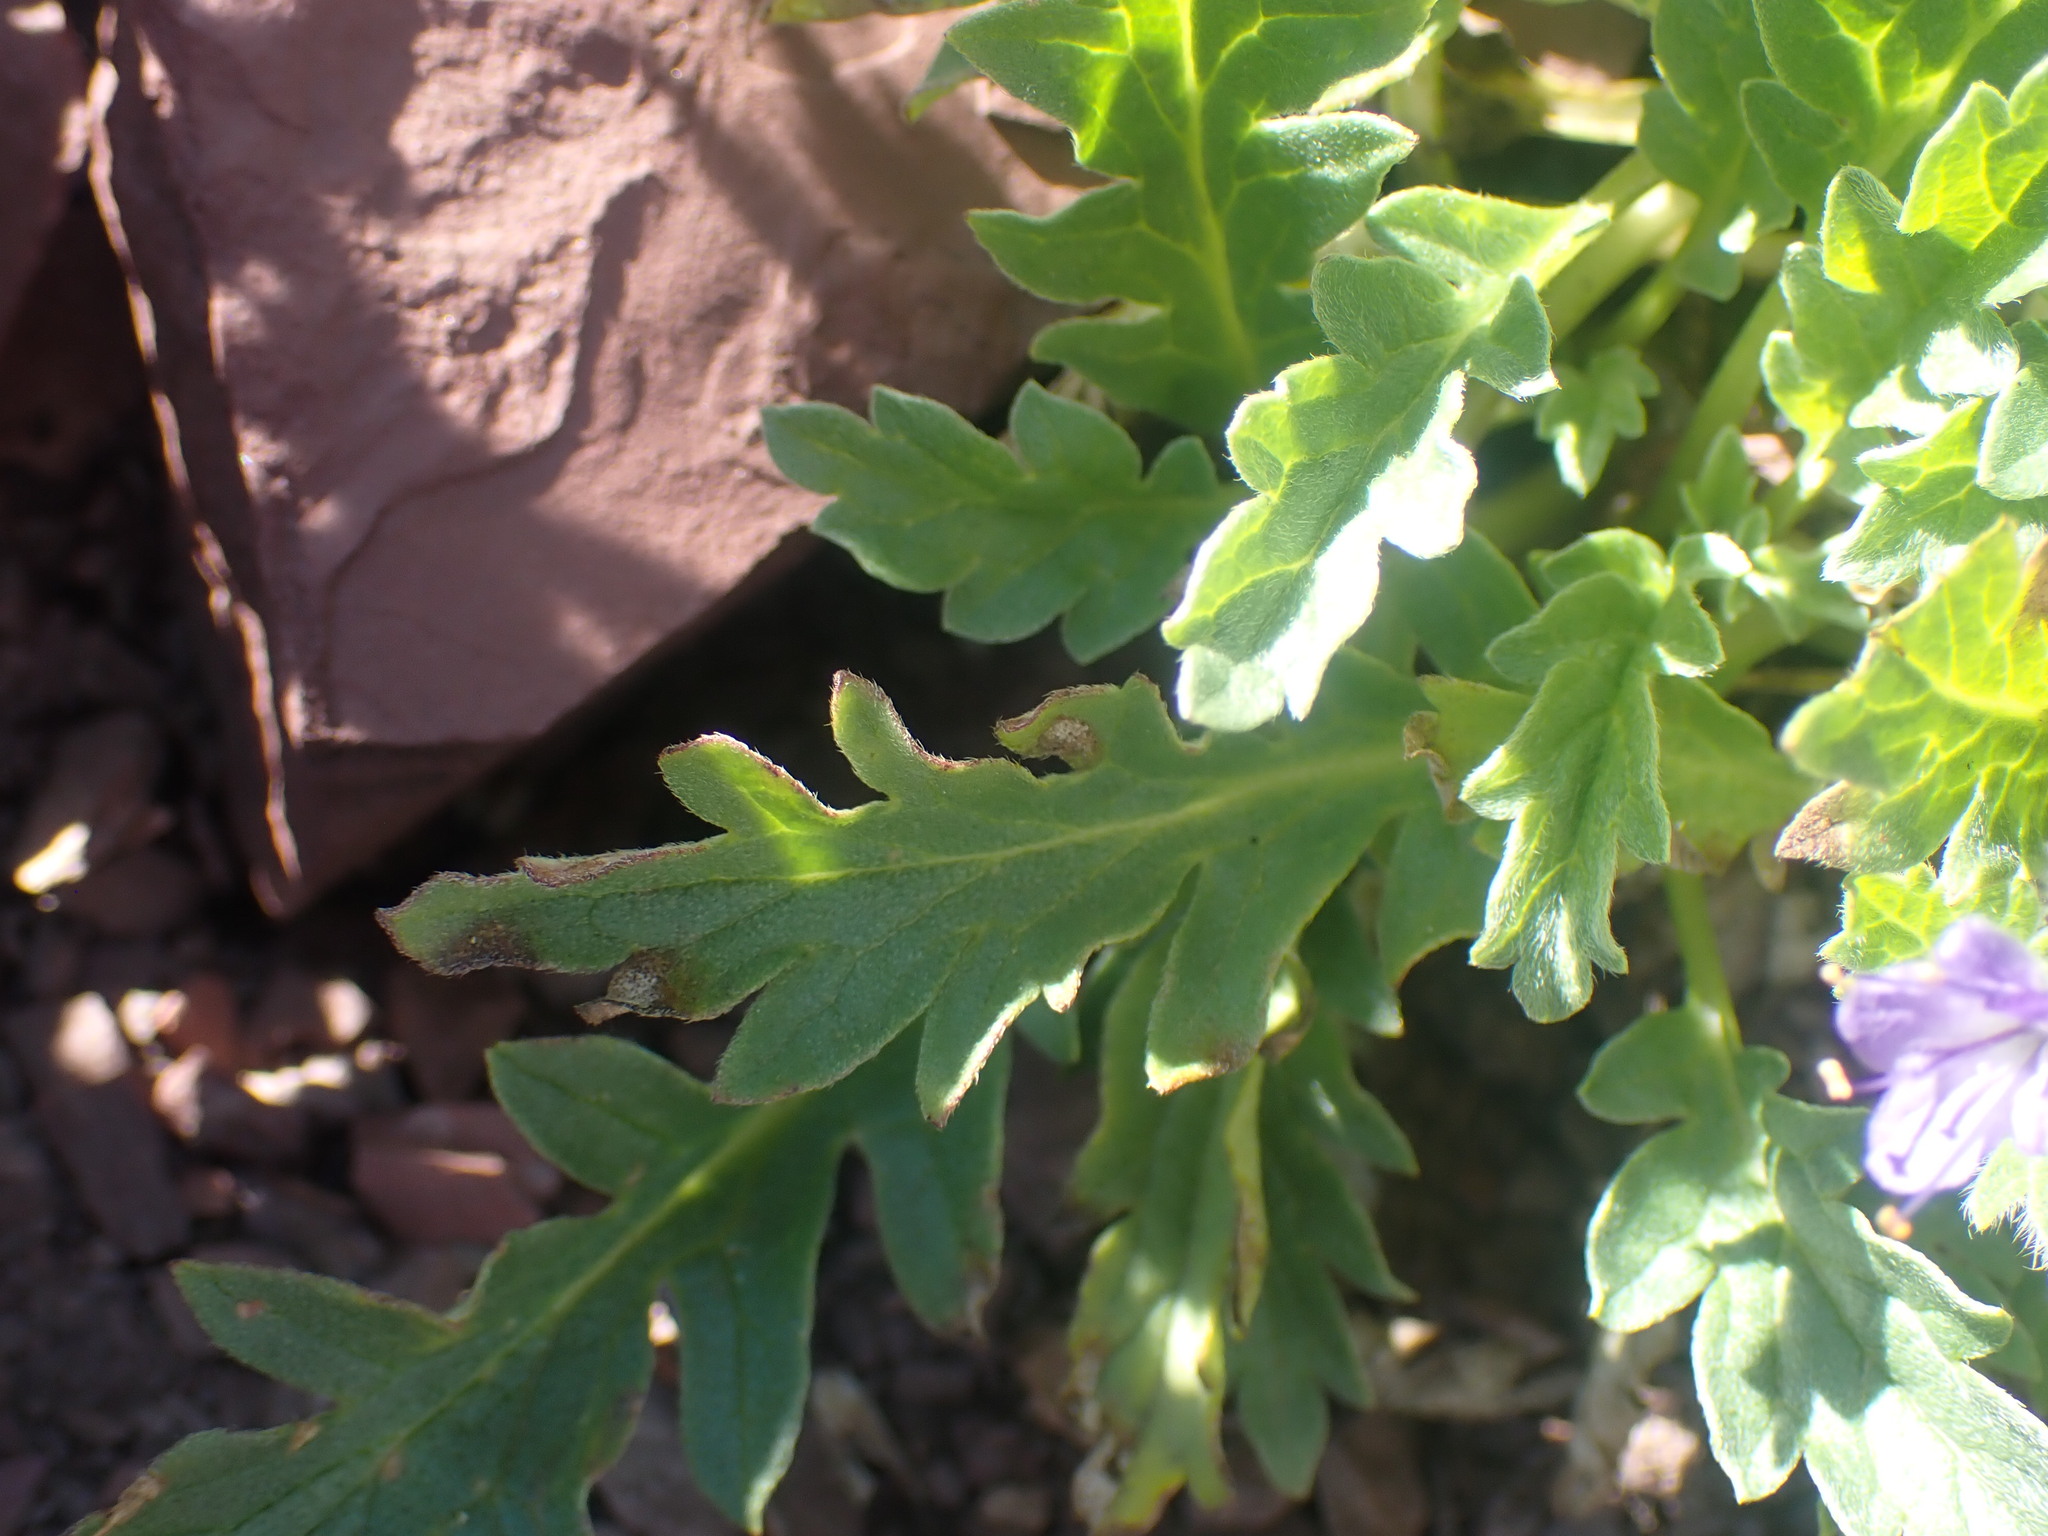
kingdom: Plantae
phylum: Tracheophyta
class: Magnoliopsida
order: Boraginales
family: Hydrophyllaceae
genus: Phacelia
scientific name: Phacelia lyallii
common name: Lyall's phacelia
